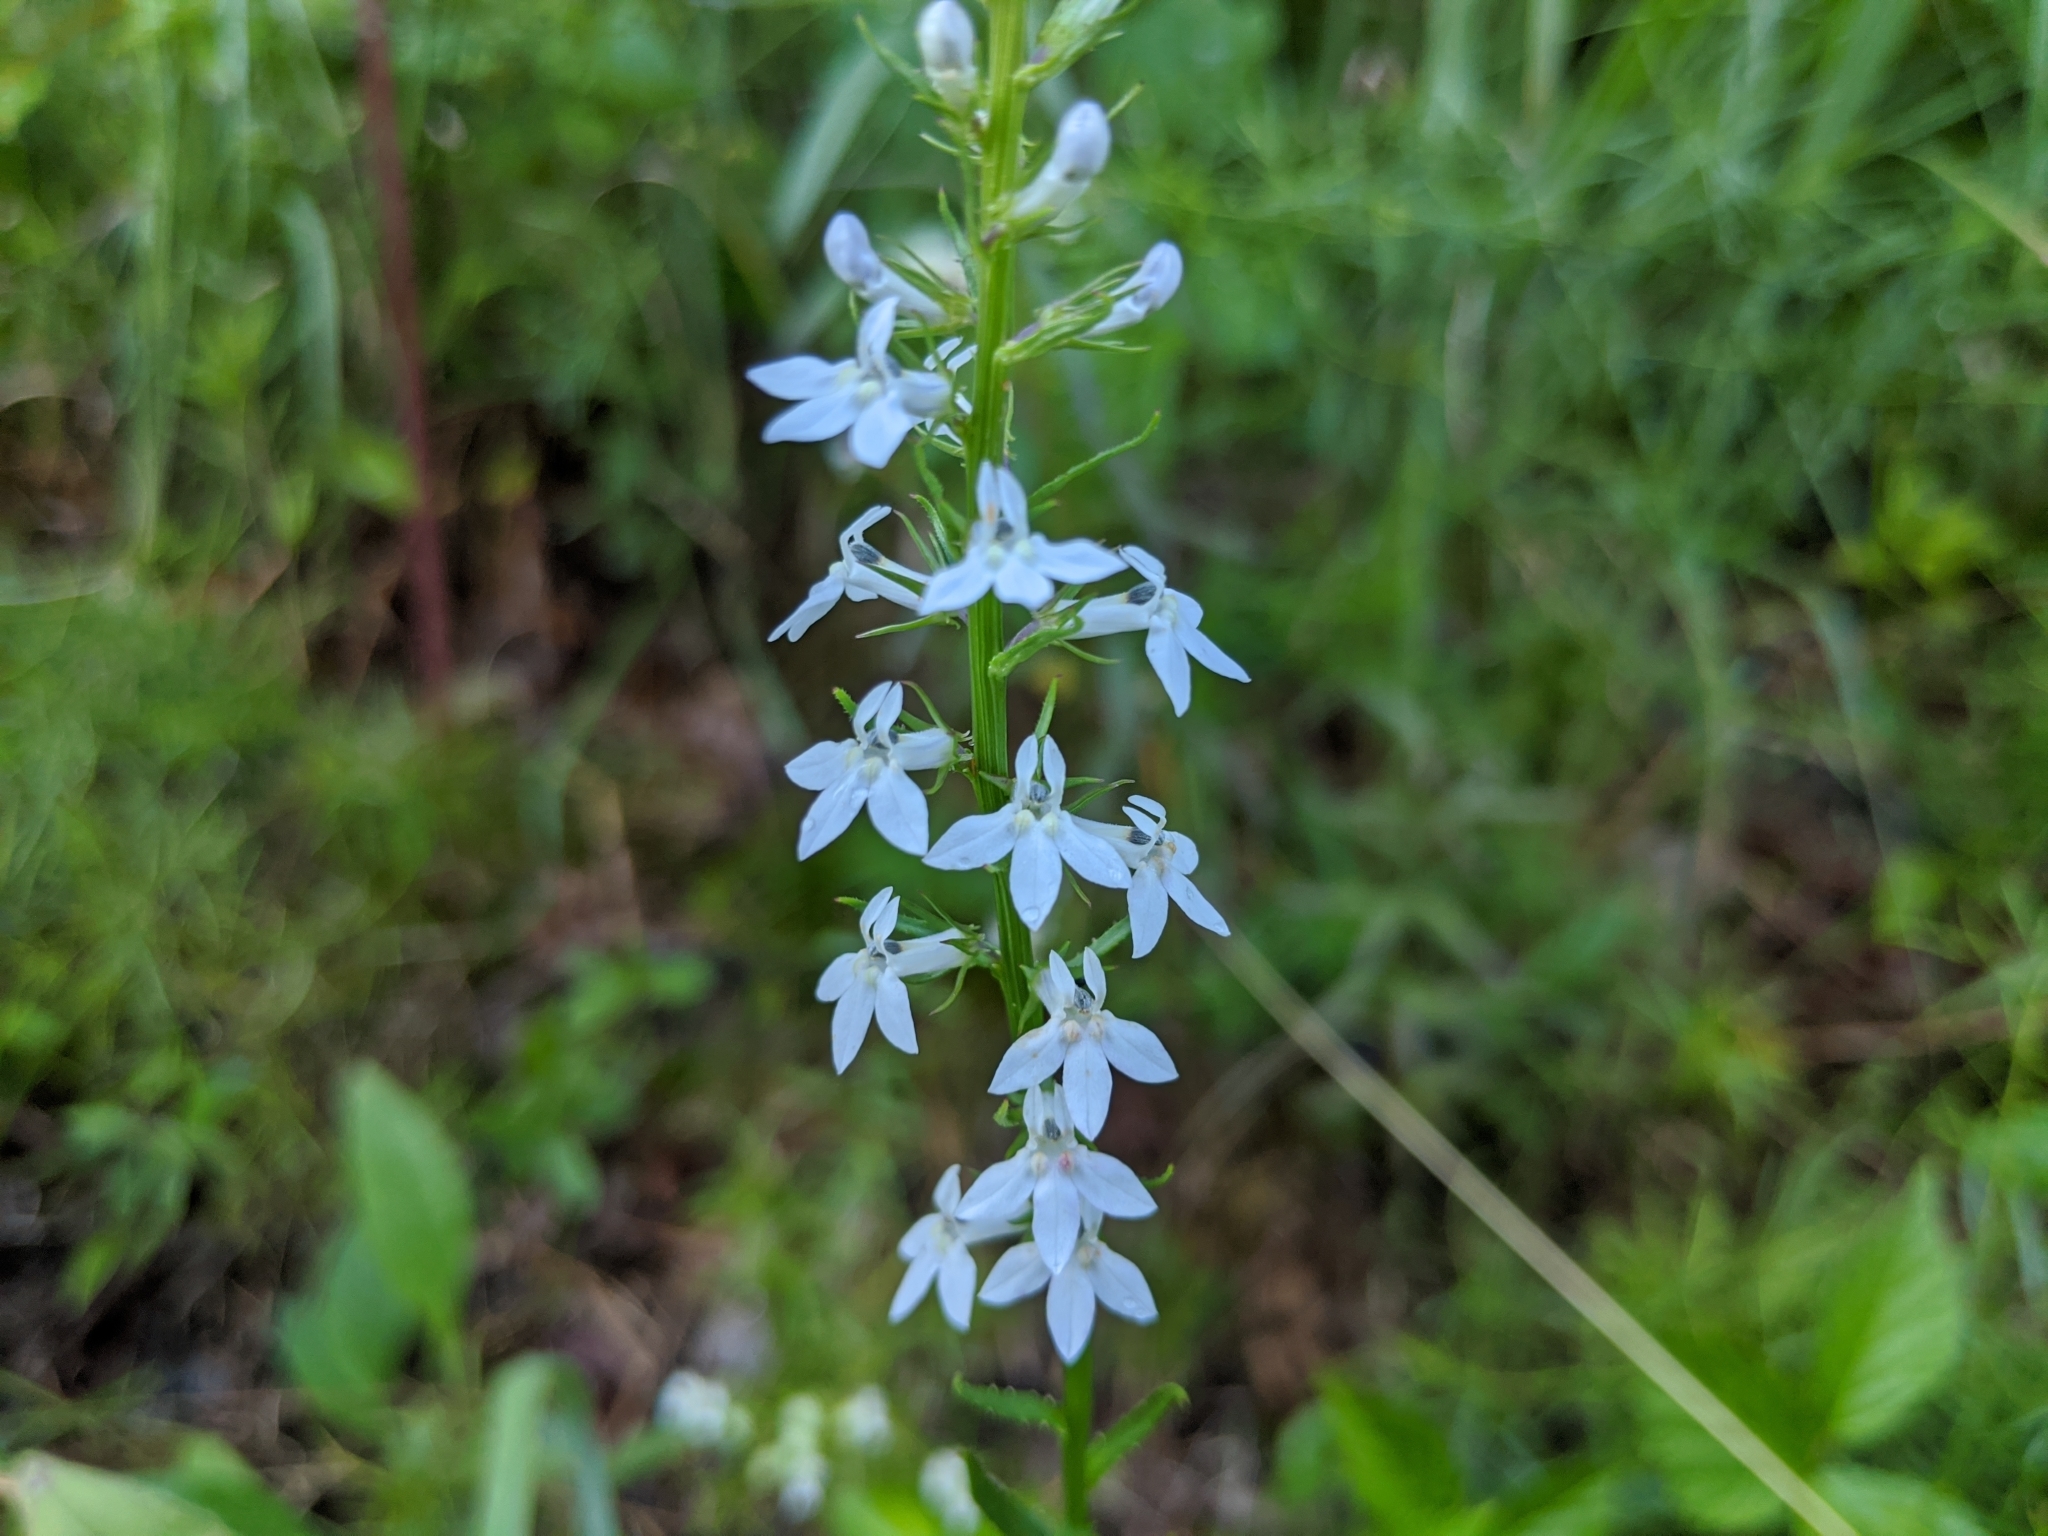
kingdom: Plantae
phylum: Tracheophyta
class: Magnoliopsida
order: Asterales
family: Campanulaceae
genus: Lobelia
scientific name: Lobelia spicata
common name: Pale-spike lobelia
